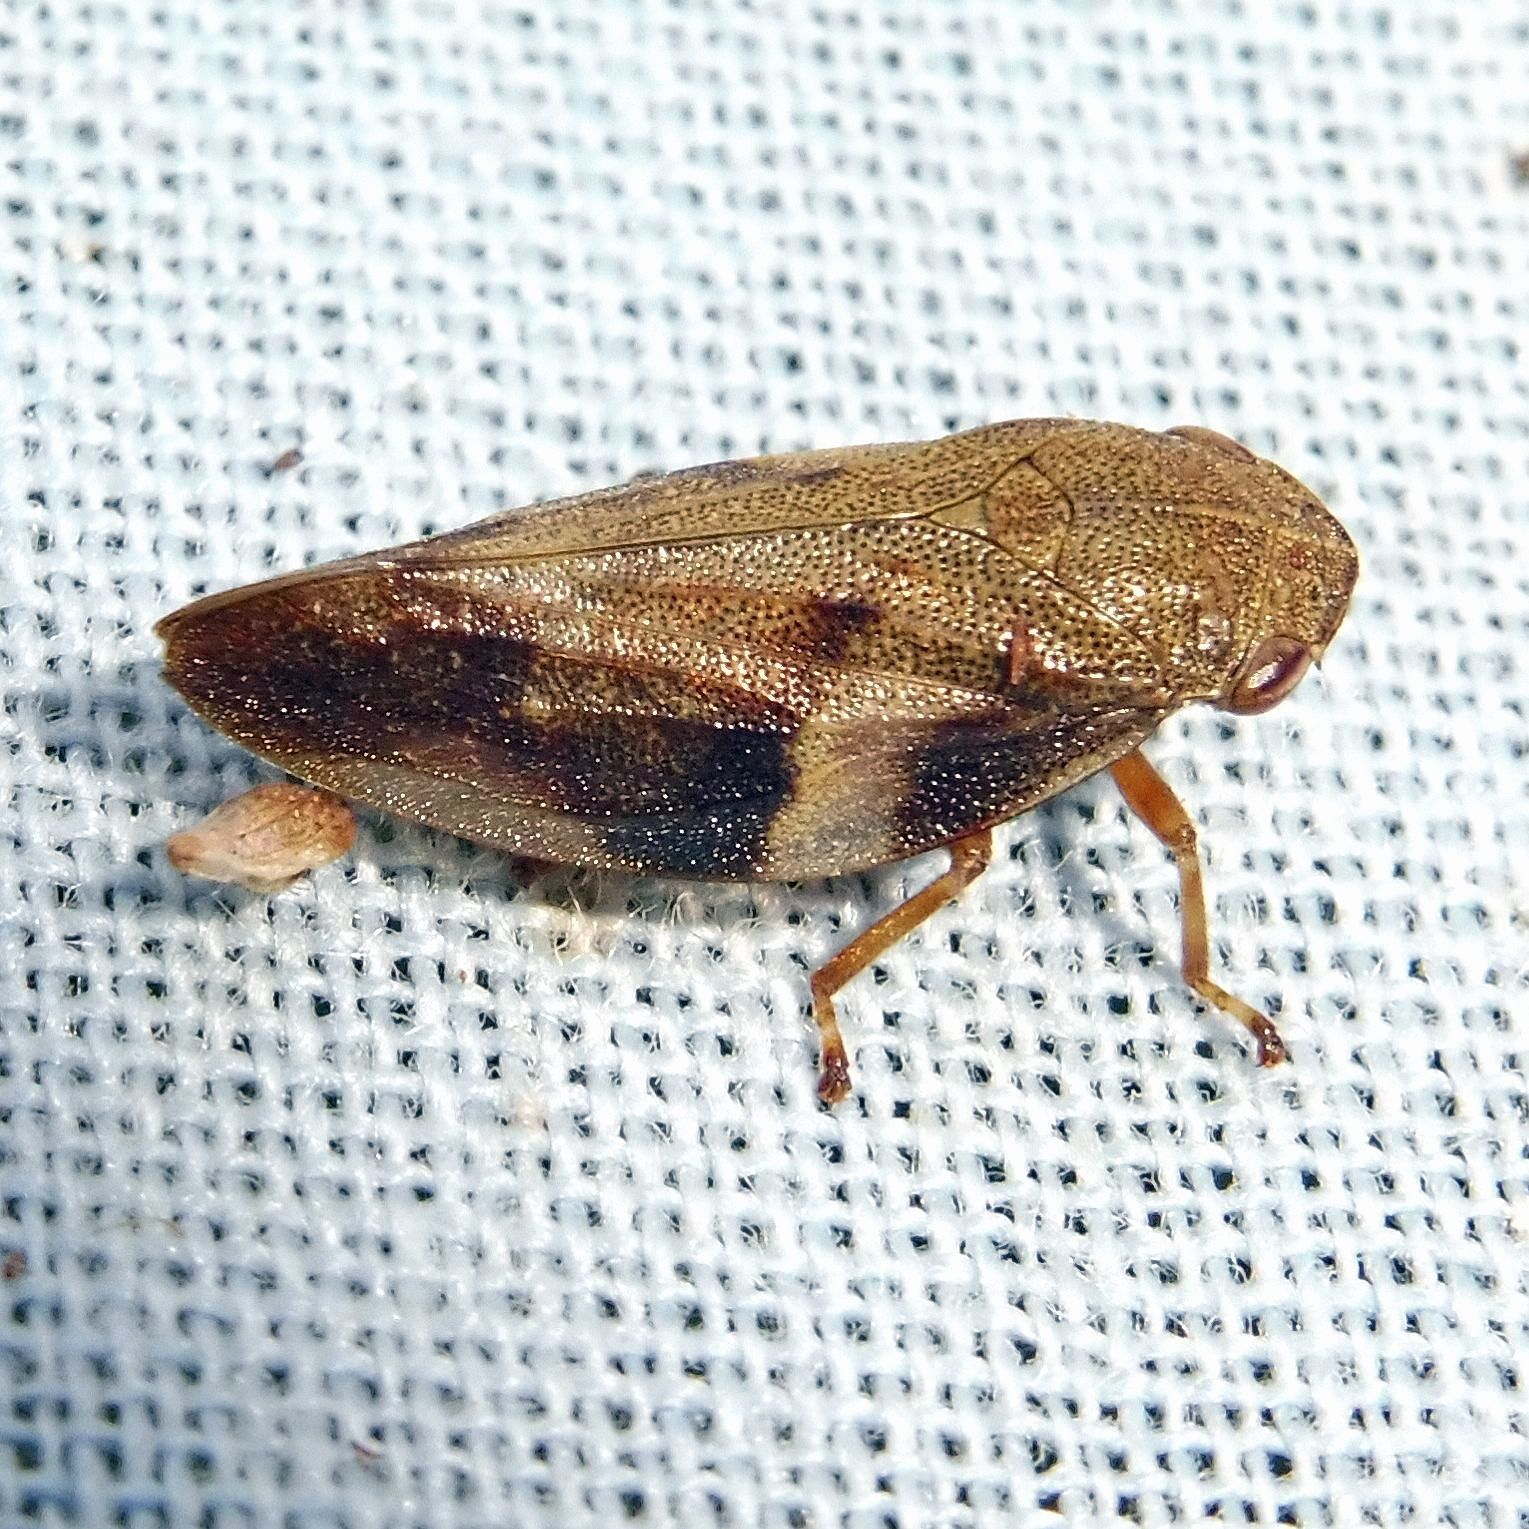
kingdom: Animalia
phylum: Arthropoda
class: Insecta
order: Hemiptera
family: Aphrophoridae
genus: Aphrophora
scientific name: Aphrophora alni
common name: European alder spittlebug
